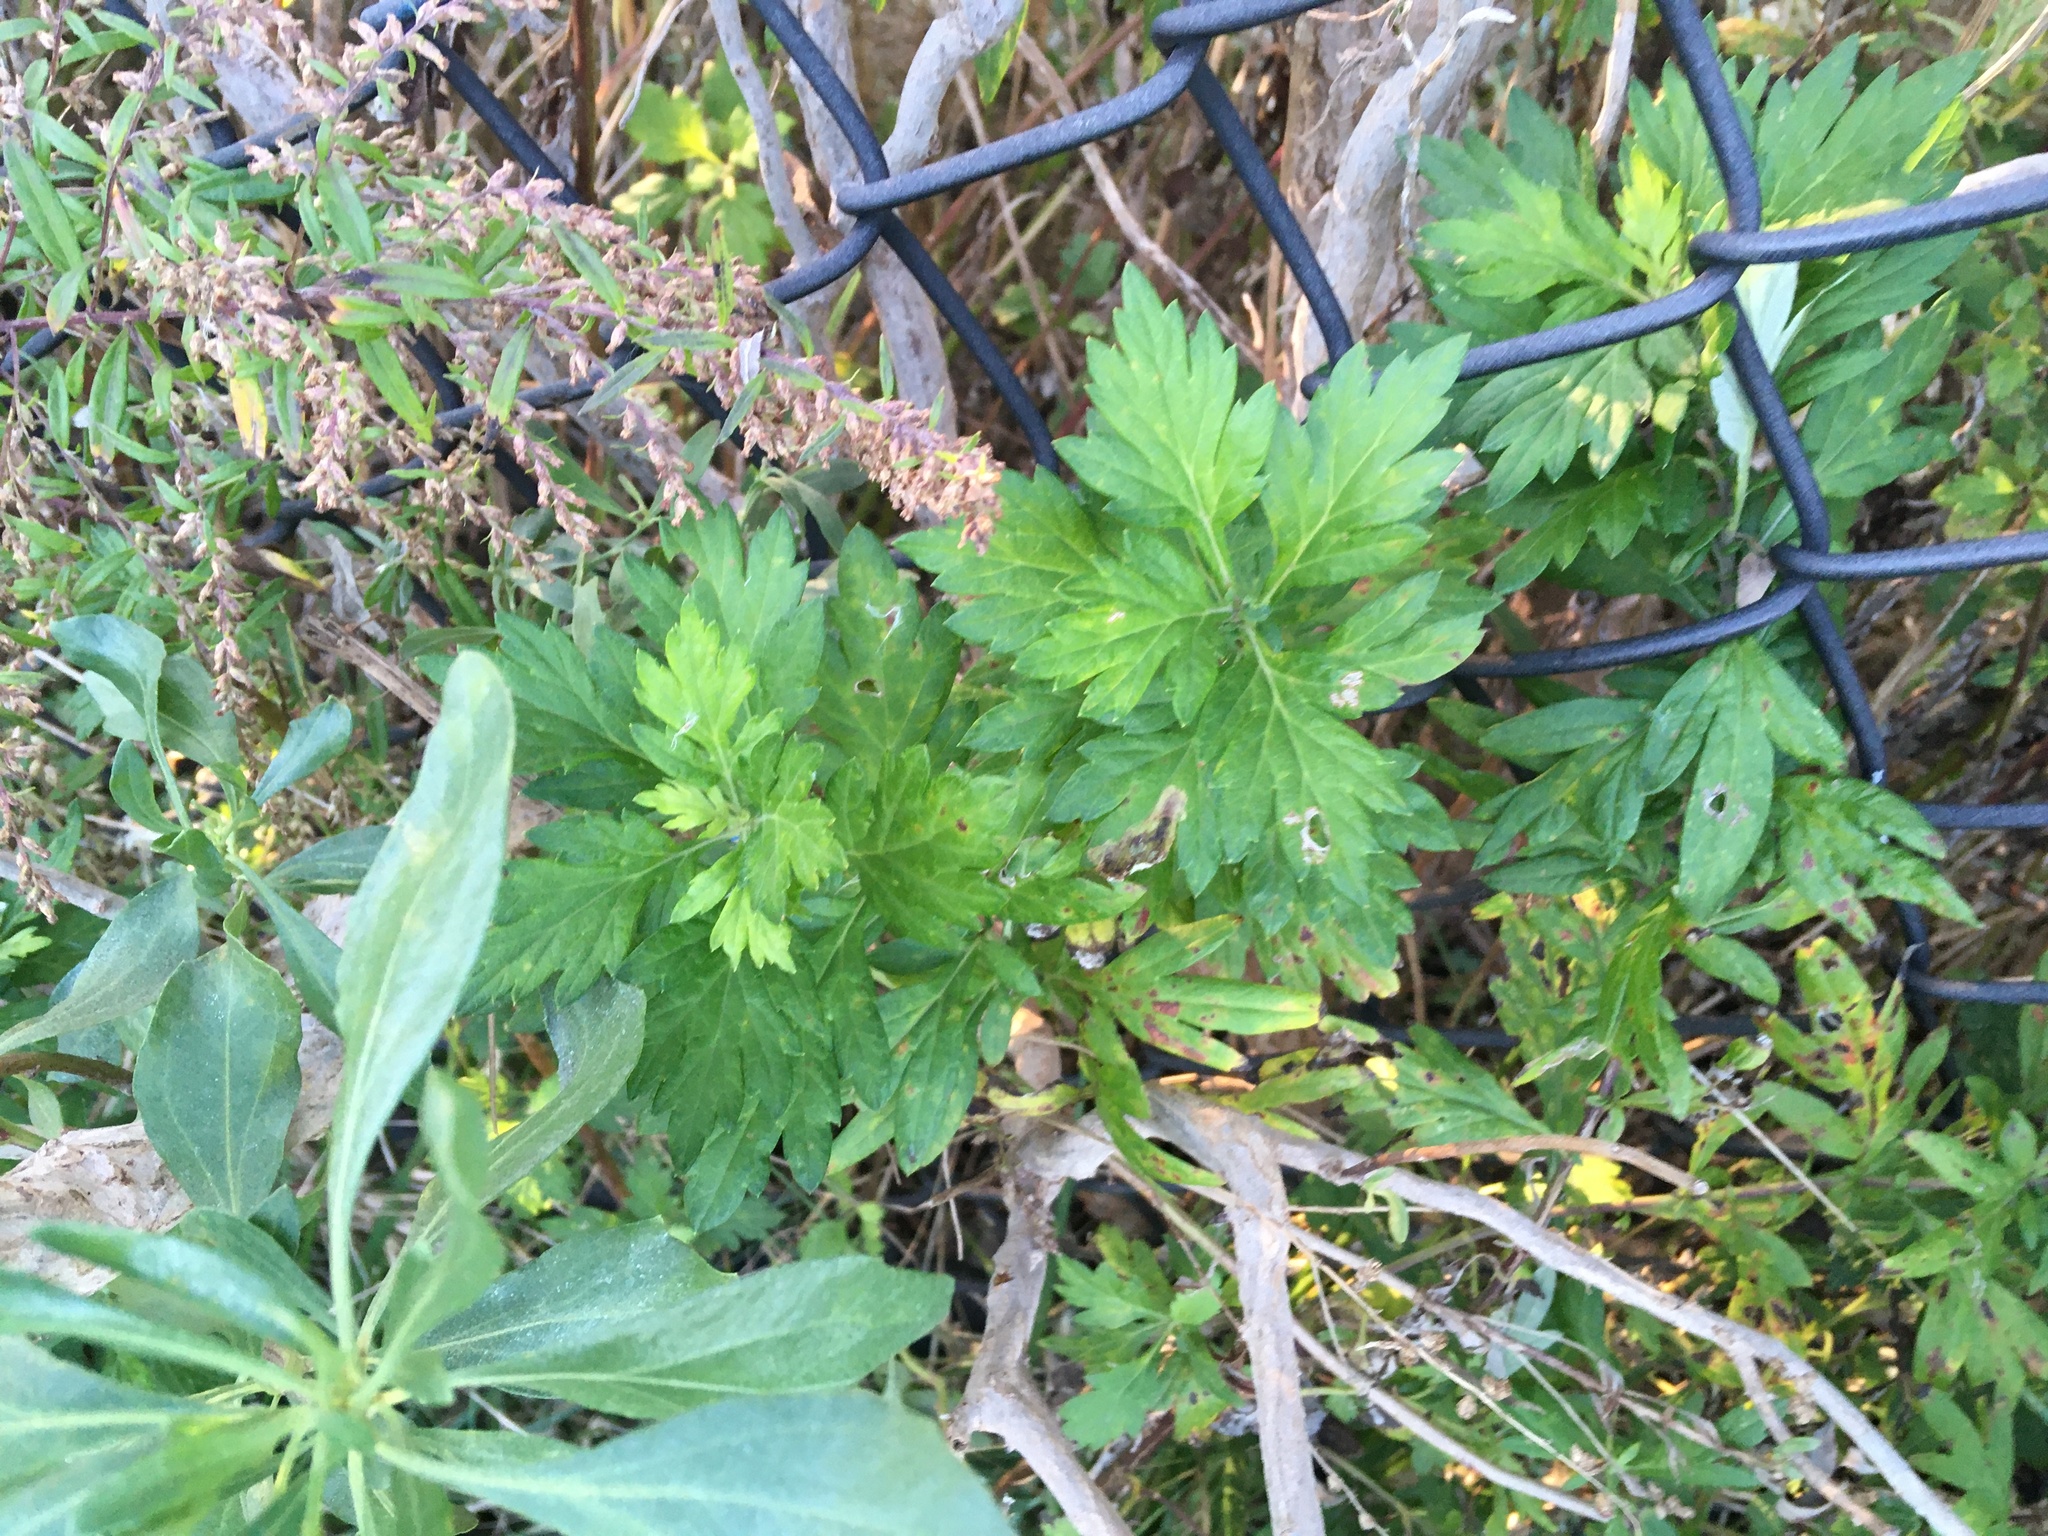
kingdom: Plantae
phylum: Tracheophyta
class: Magnoliopsida
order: Asterales
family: Asteraceae
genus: Artemisia
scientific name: Artemisia vulgaris
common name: Mugwort
